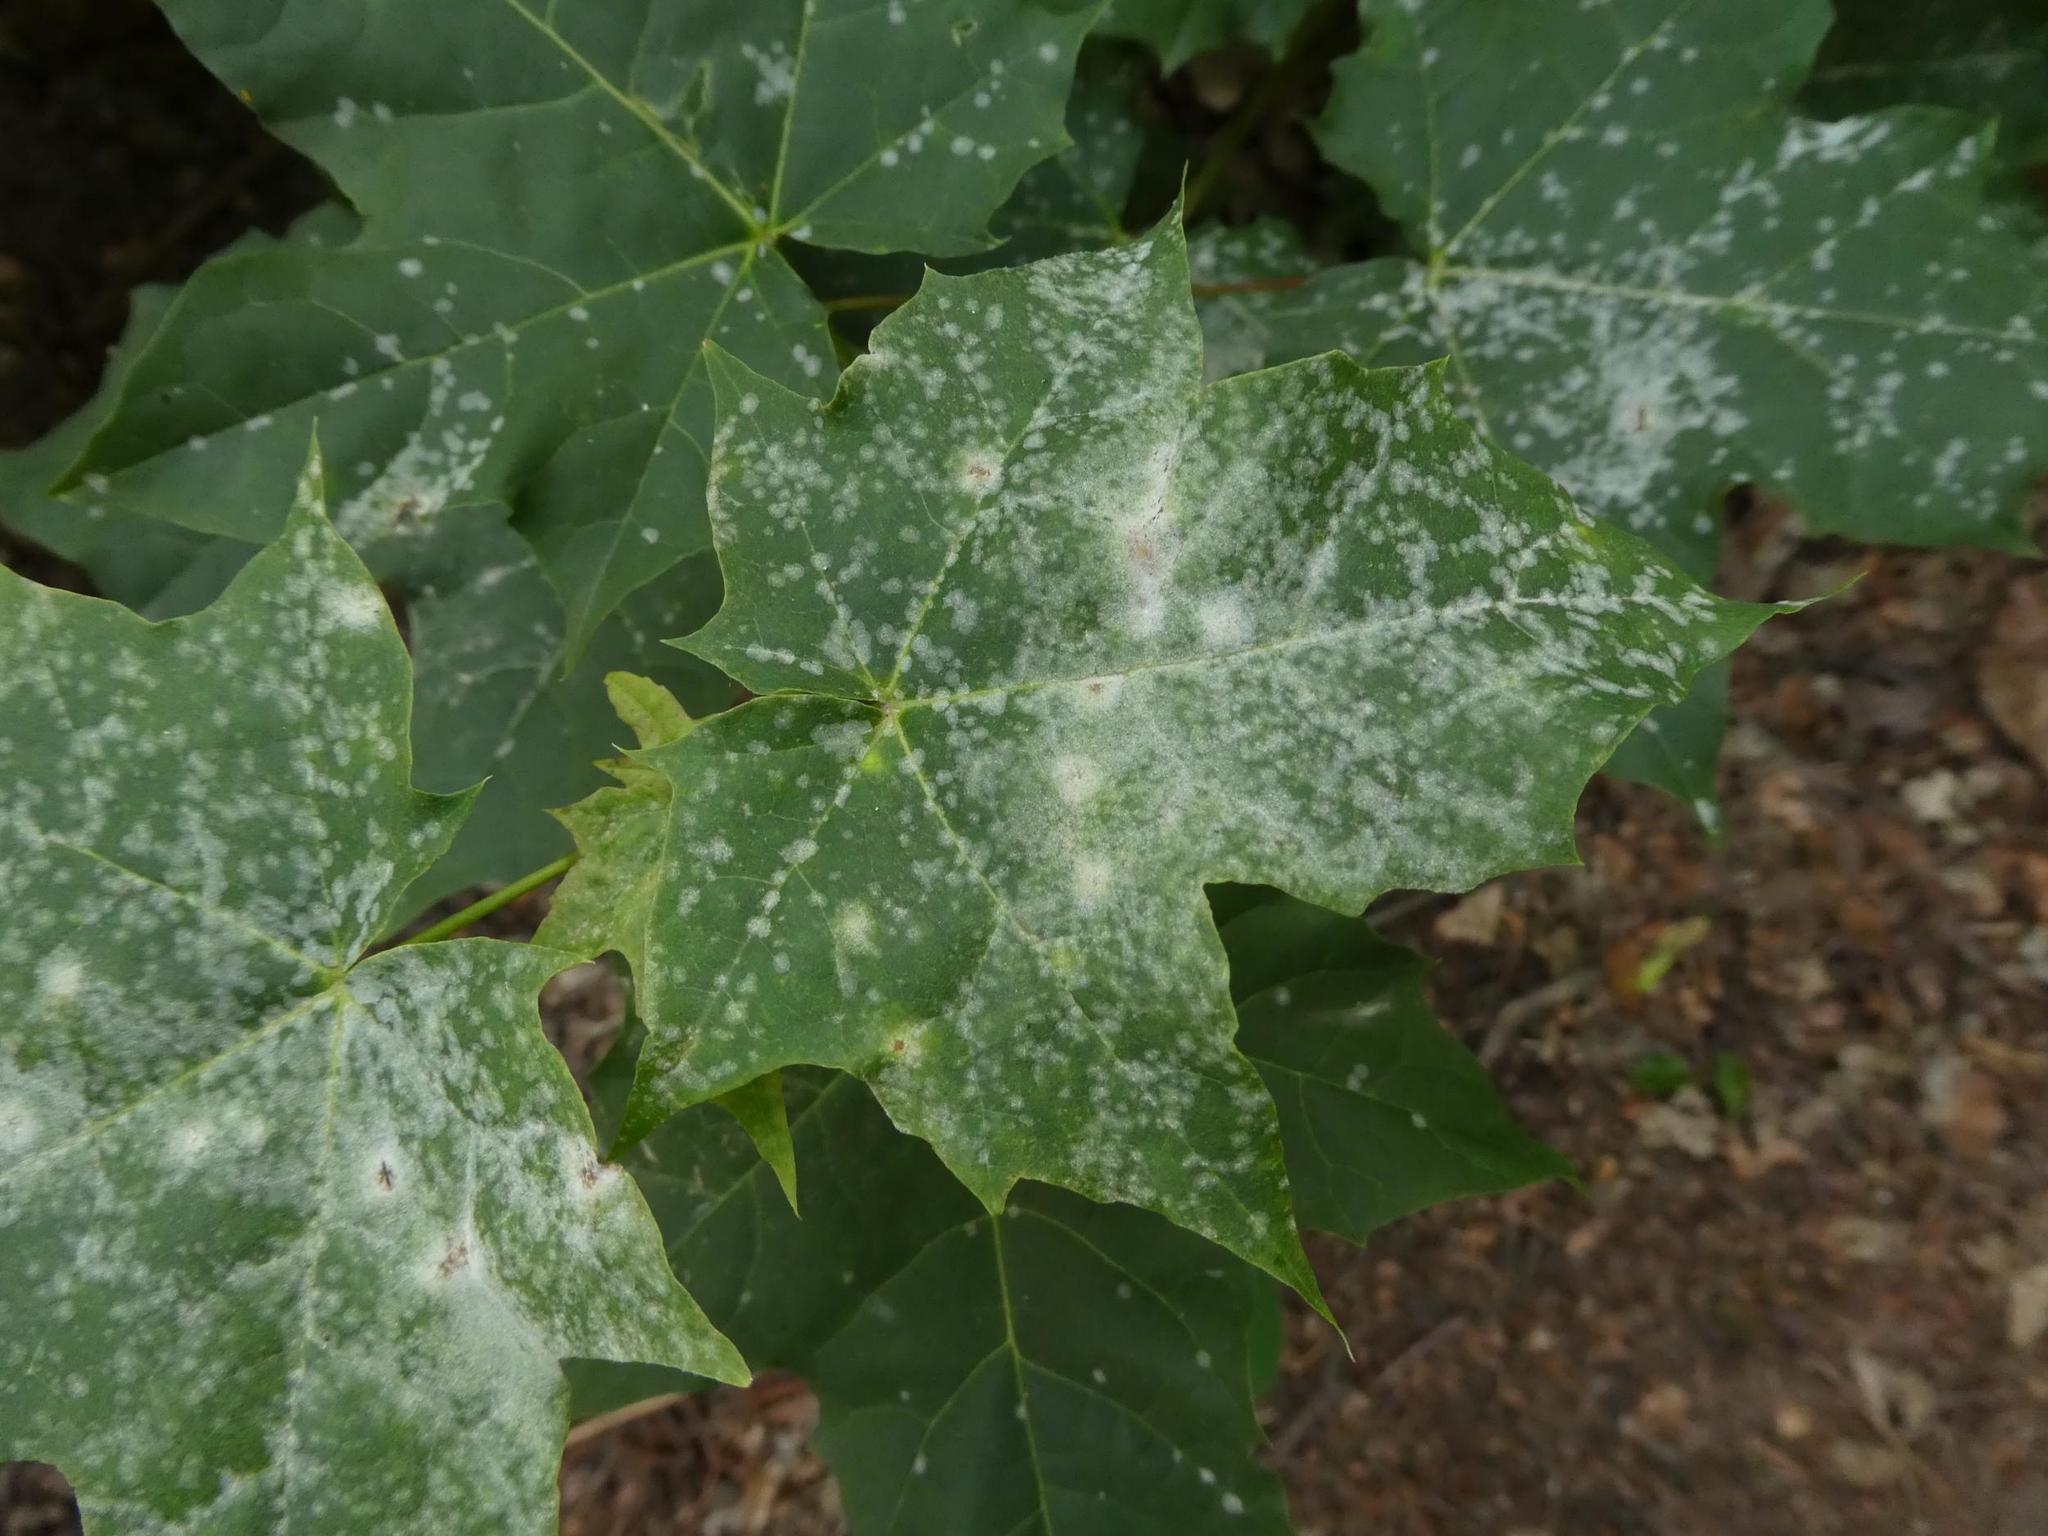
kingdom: Fungi
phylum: Ascomycota
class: Leotiomycetes
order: Helotiales
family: Erysiphaceae
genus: Sawadaea
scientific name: Sawadaea tulasnei
